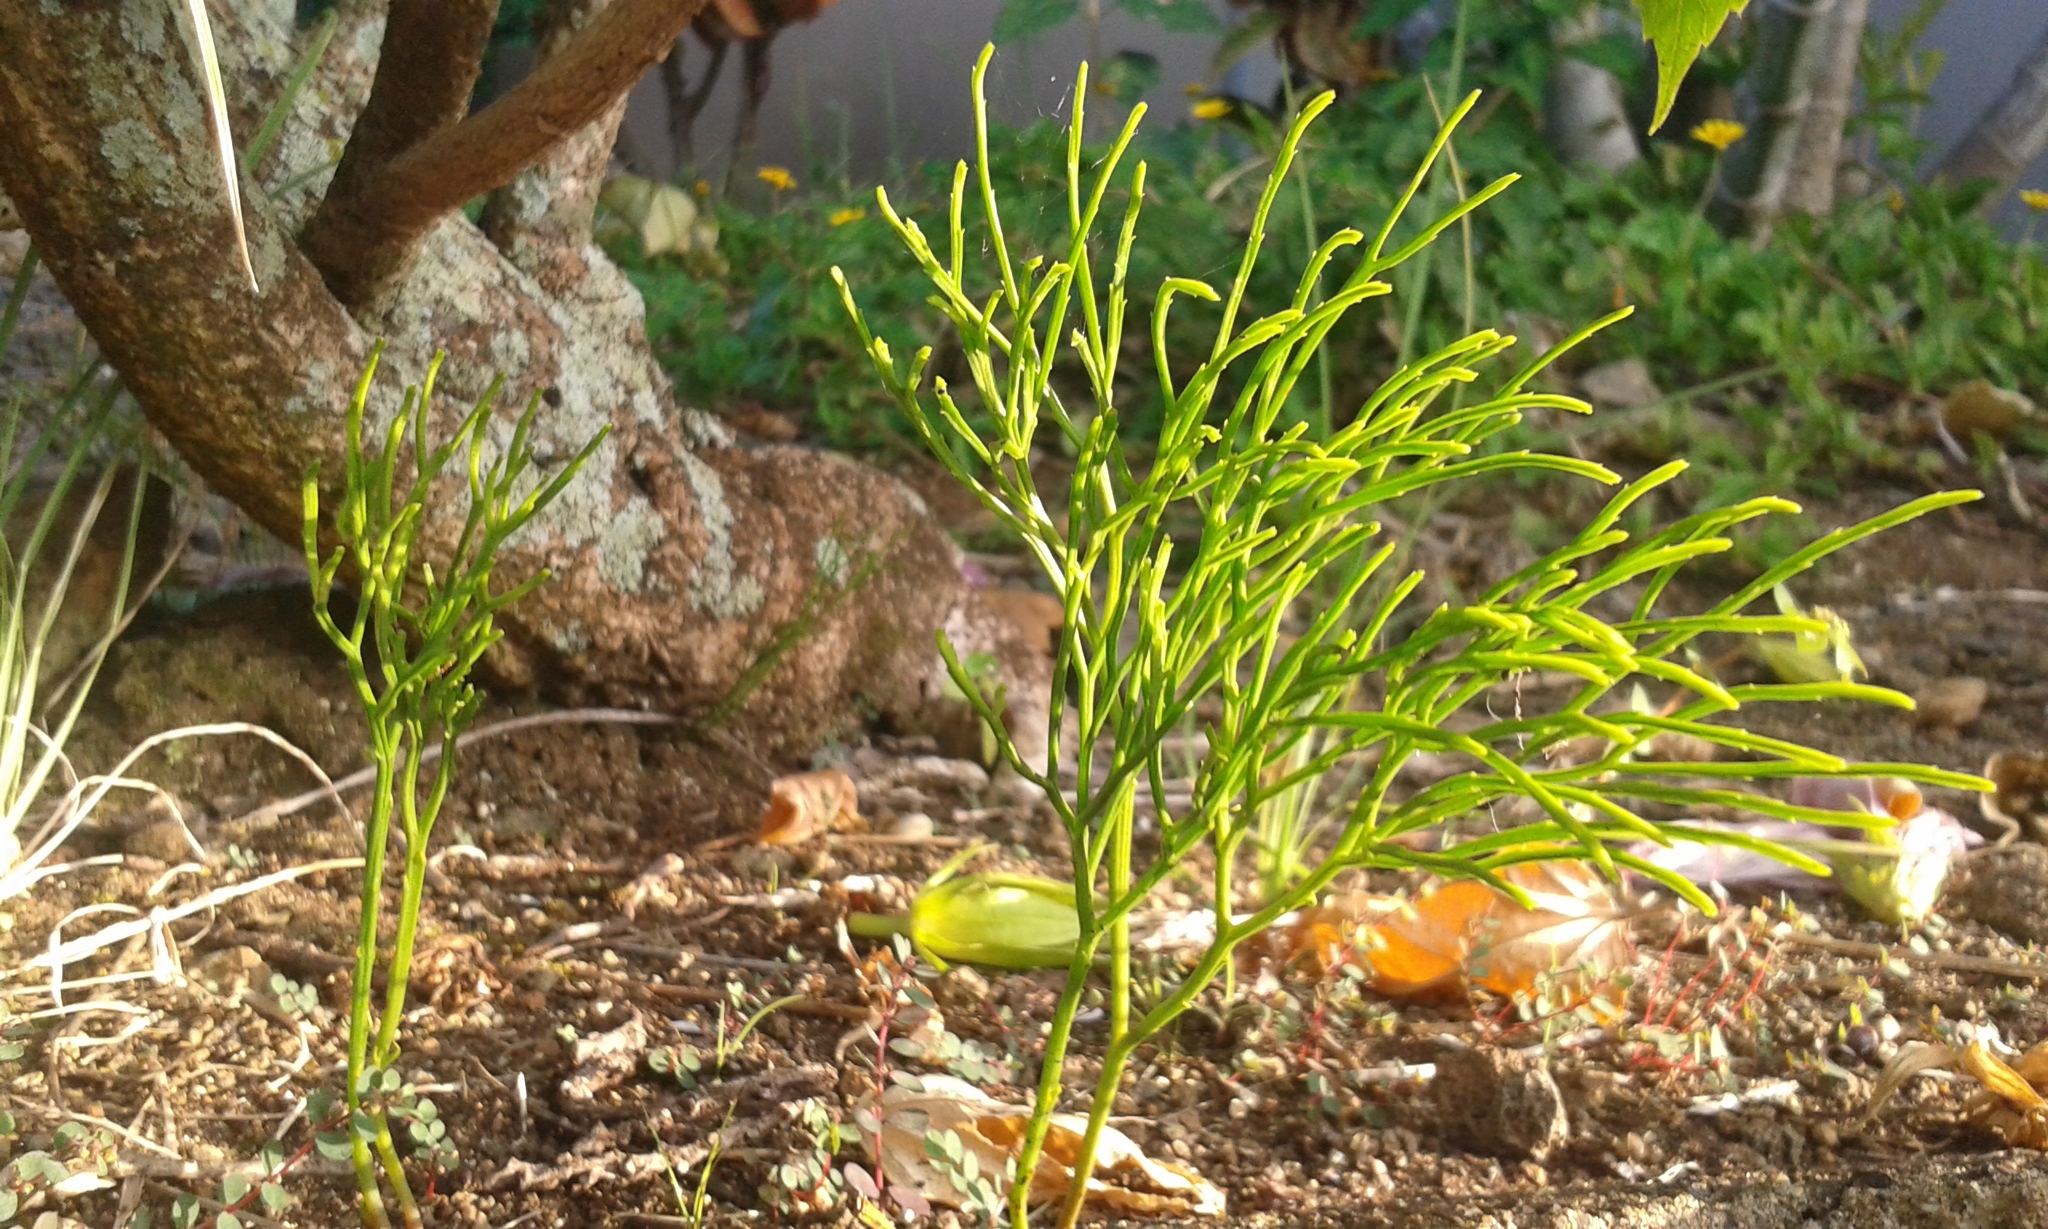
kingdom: Plantae
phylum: Tracheophyta
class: Polypodiopsida
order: Psilotales
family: Psilotaceae
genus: Psilotum
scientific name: Psilotum nudum
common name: Skeleton fork fern
